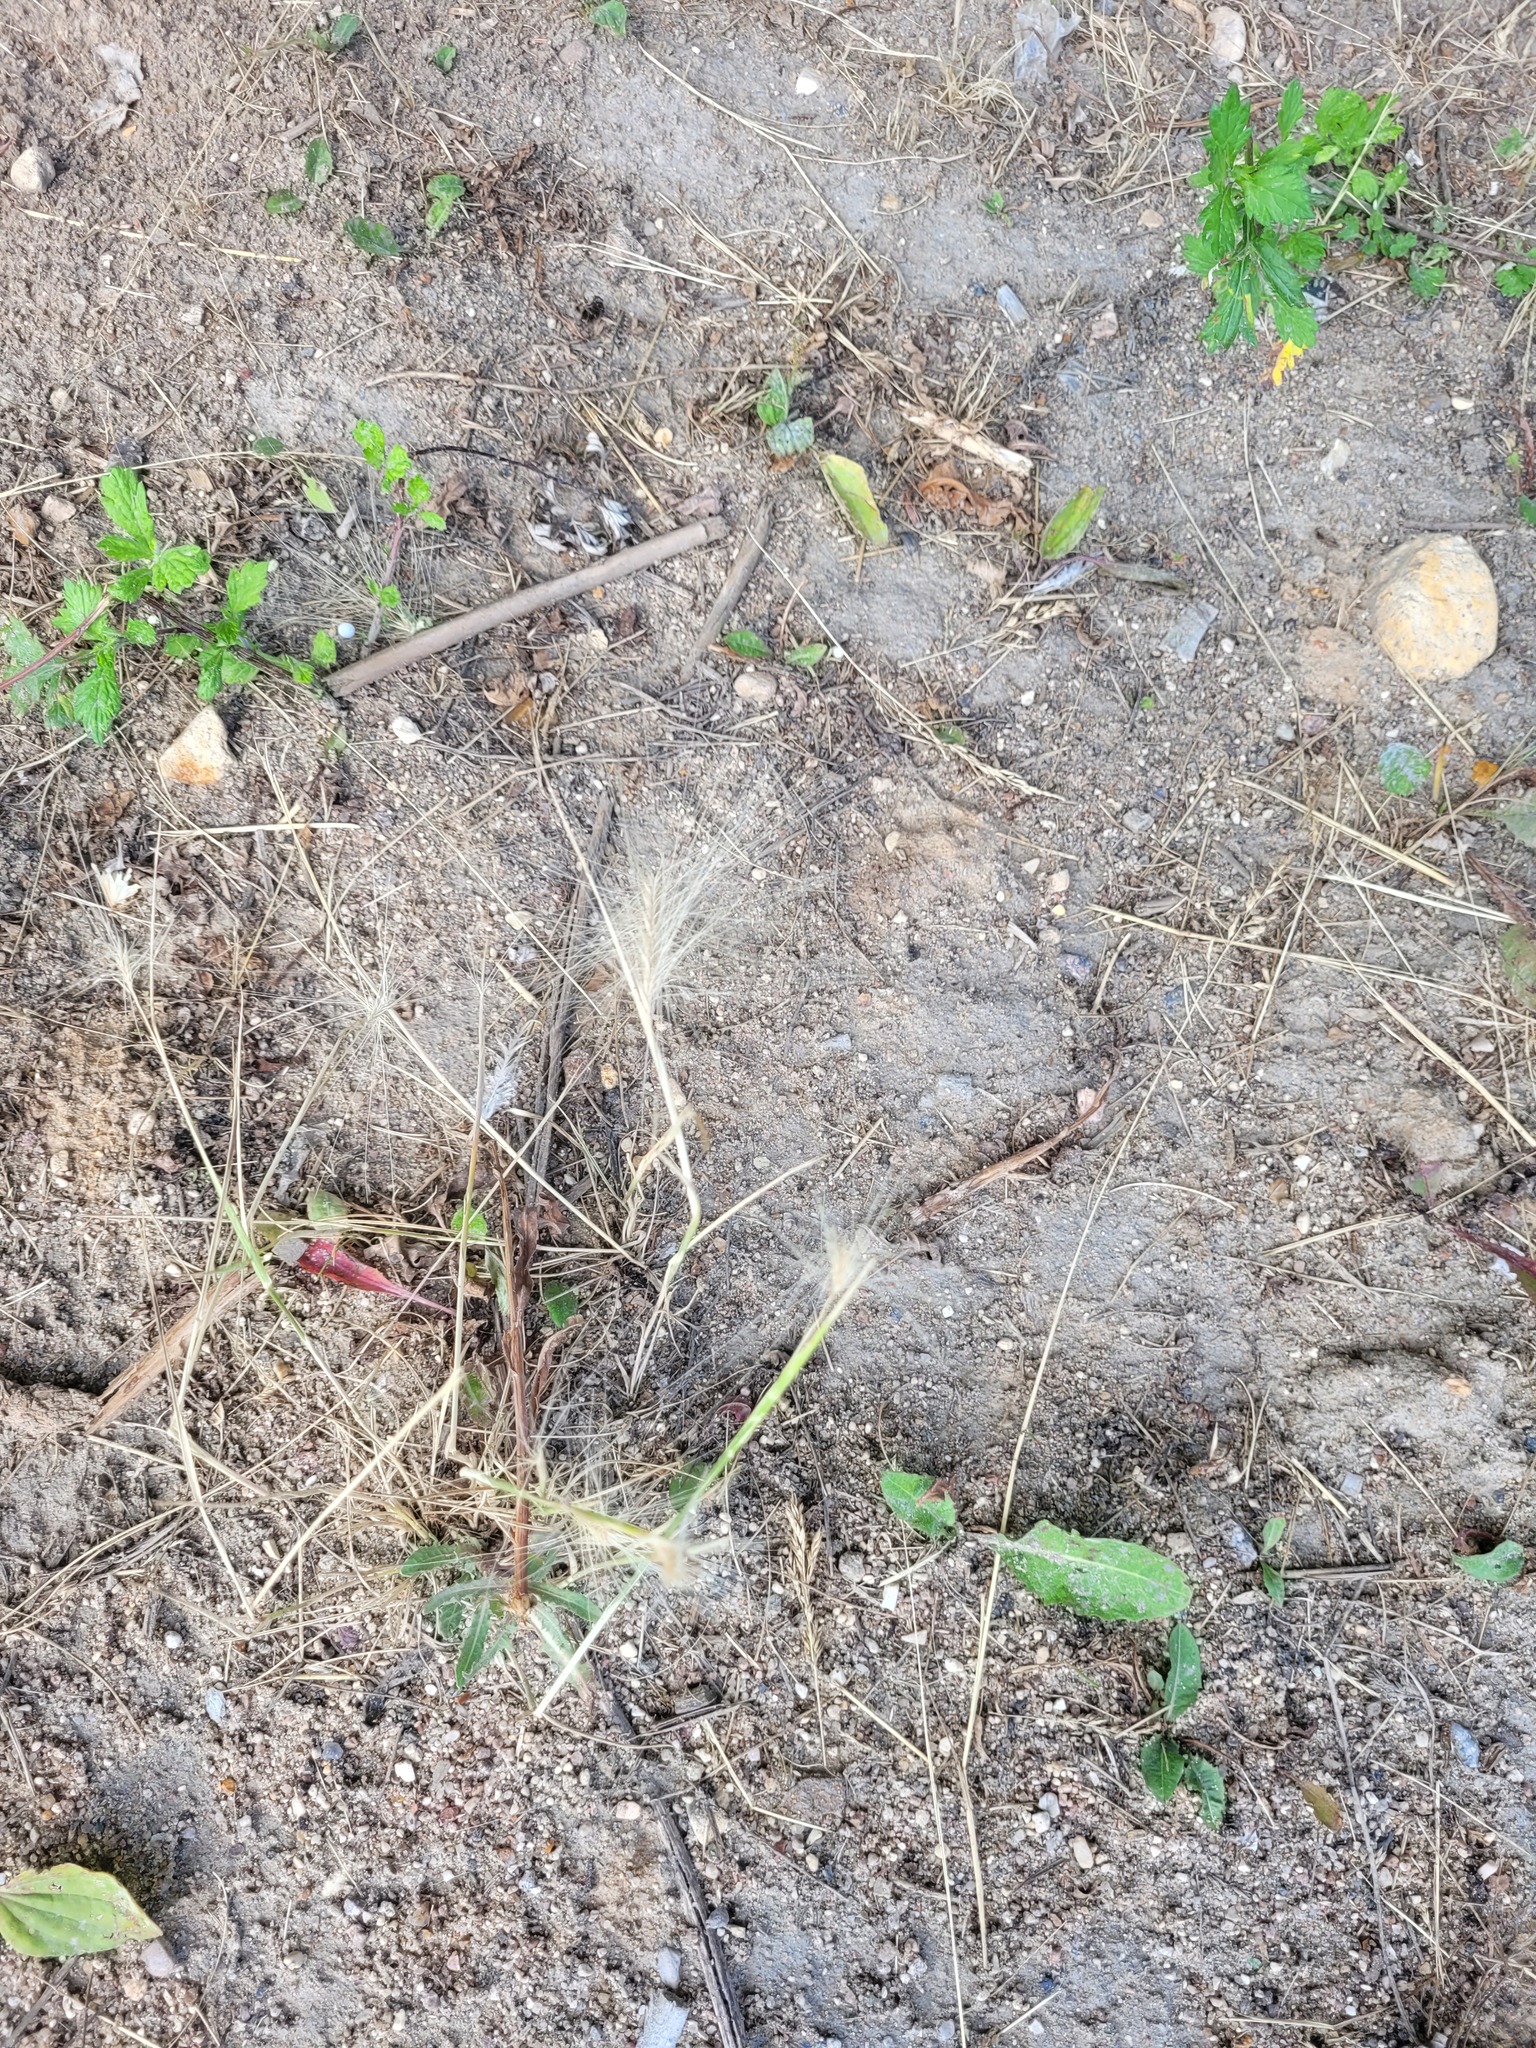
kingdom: Plantae
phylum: Tracheophyta
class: Liliopsida
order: Poales
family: Poaceae
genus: Hordeum
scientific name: Hordeum jubatum
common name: Foxtail barley
